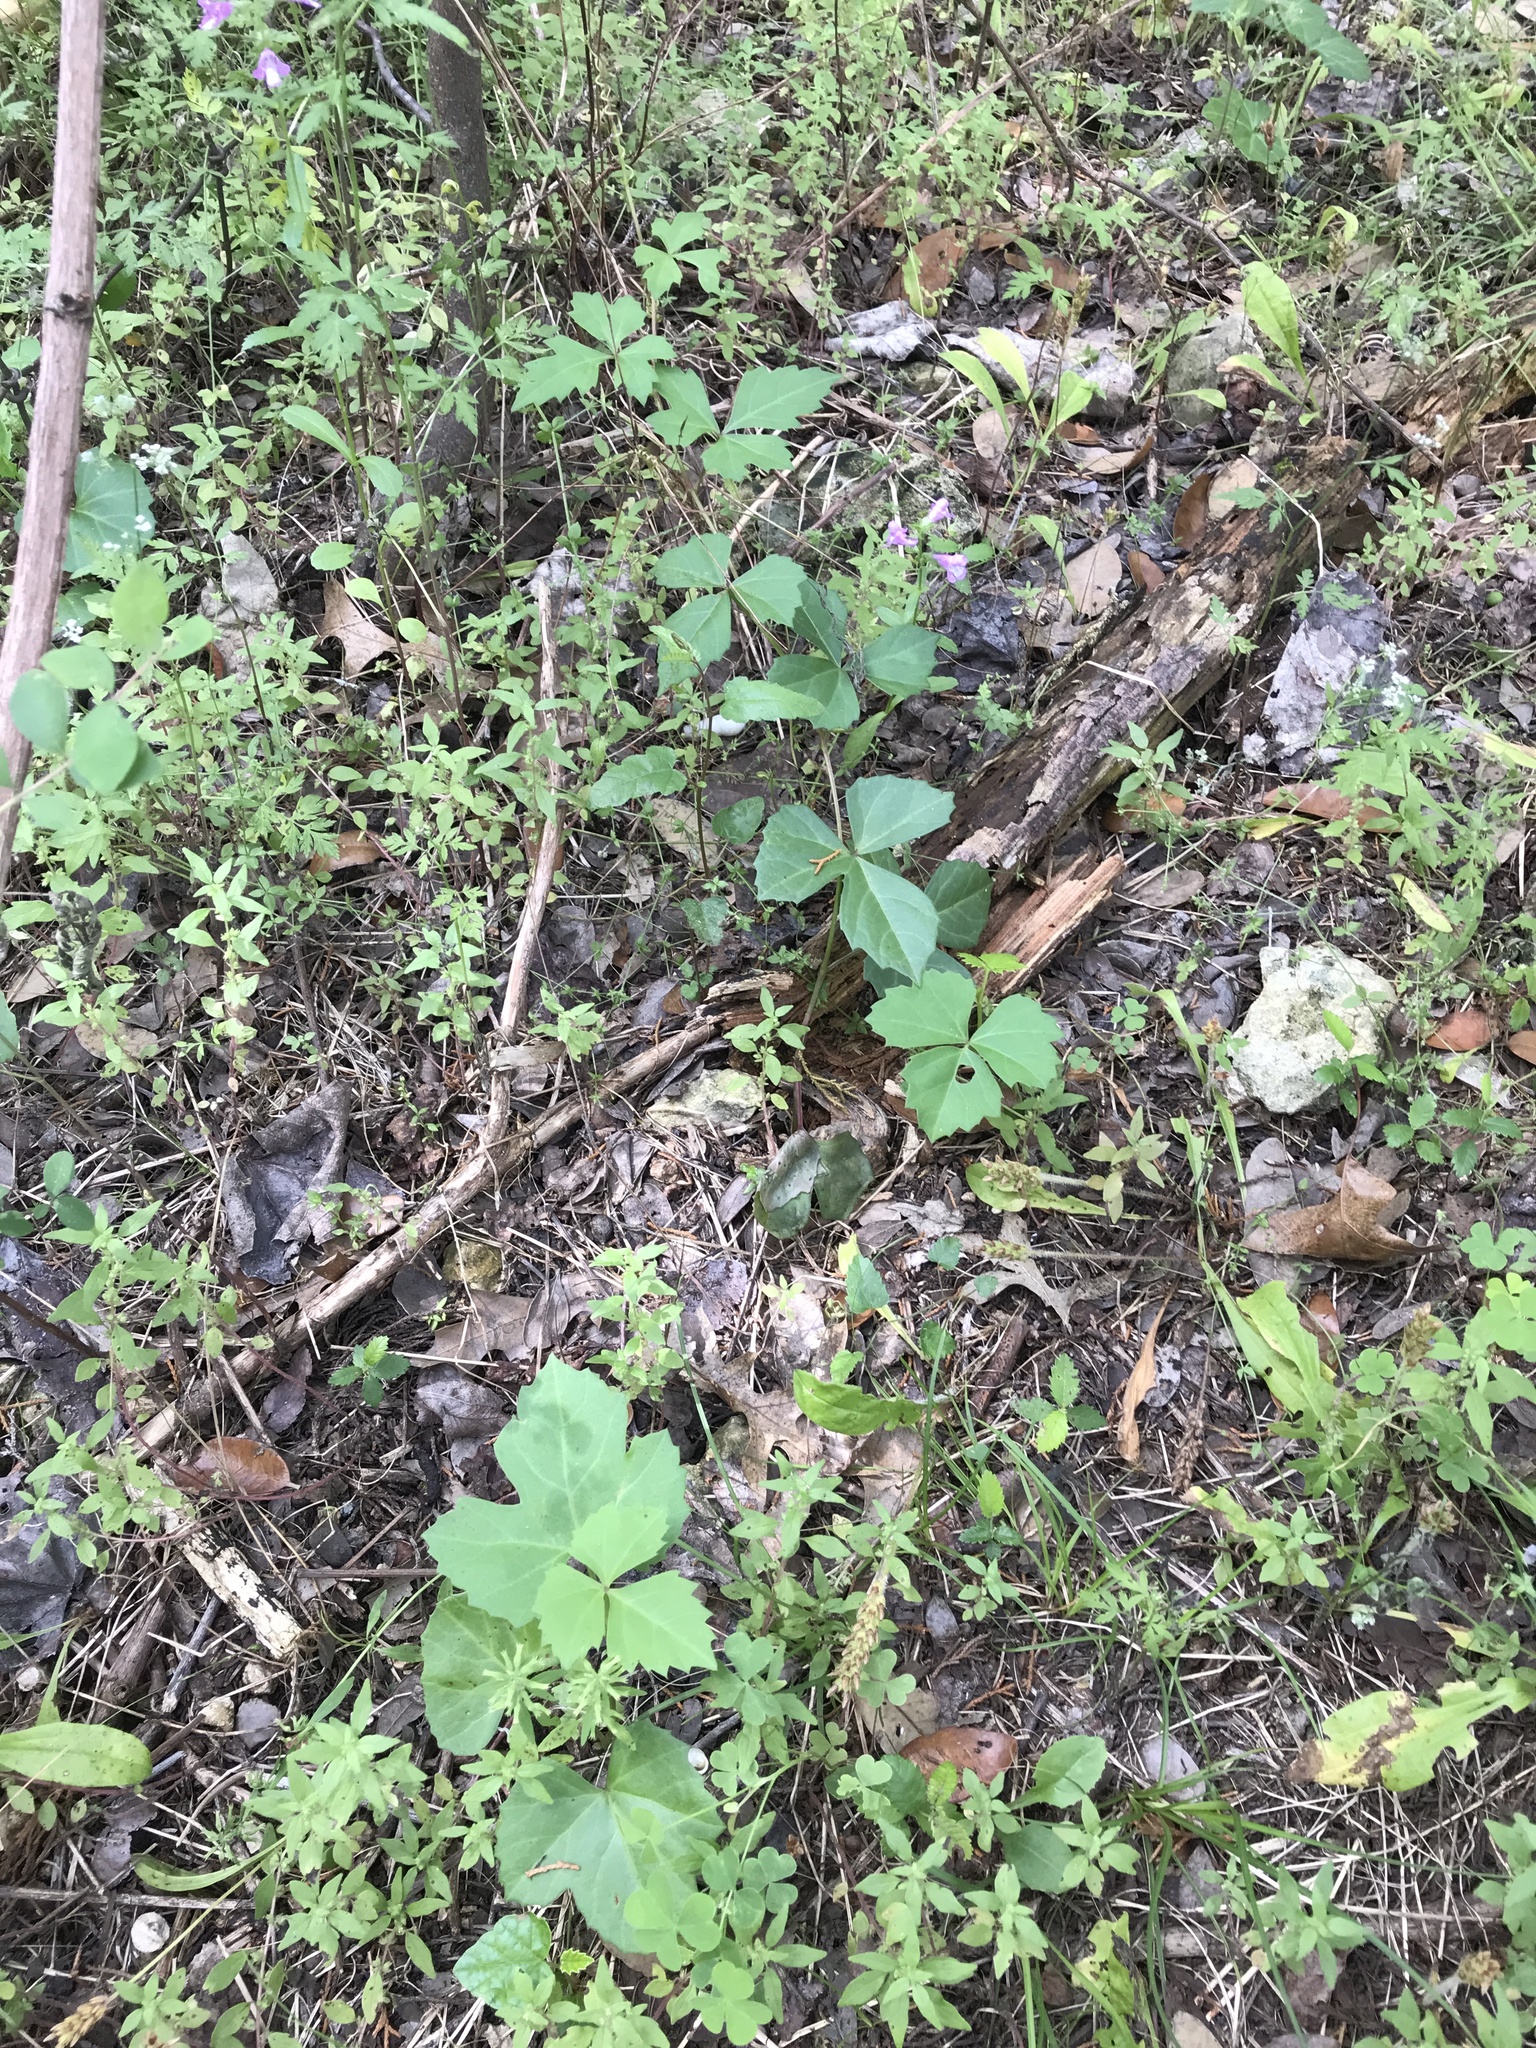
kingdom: Plantae
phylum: Tracheophyta
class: Magnoliopsida
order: Vitales
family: Vitaceae
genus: Cissus
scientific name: Cissus trifoliata
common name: Vine-sorrel
